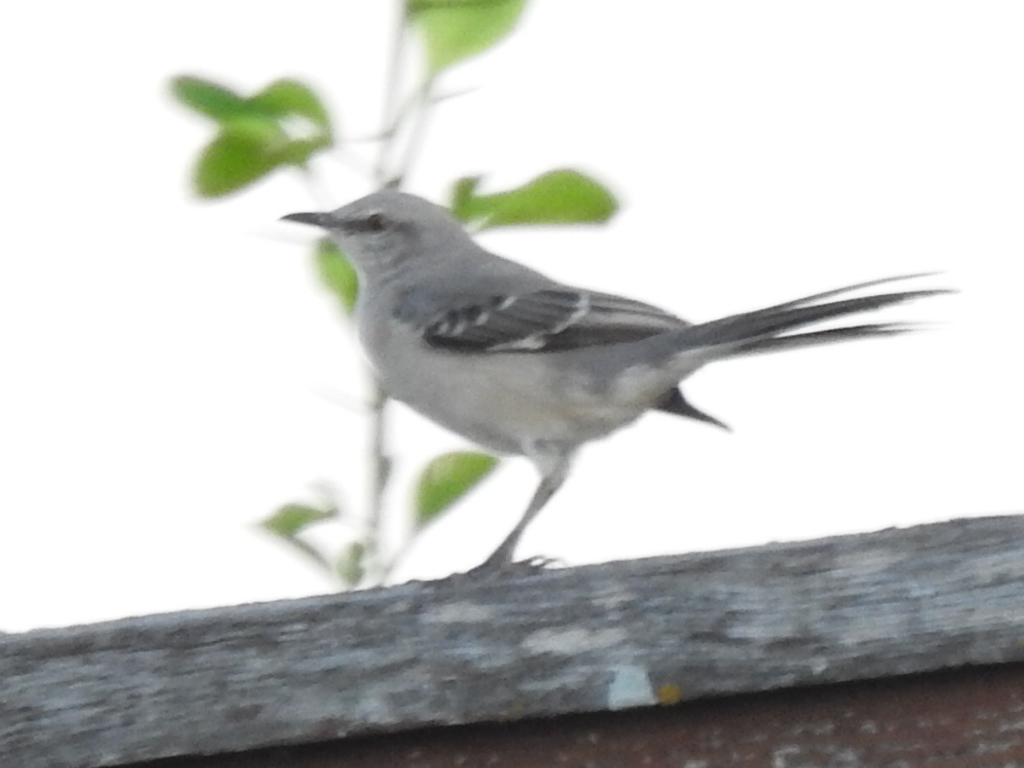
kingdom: Animalia
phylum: Chordata
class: Aves
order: Passeriformes
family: Mimidae
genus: Mimus
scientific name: Mimus polyglottos
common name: Northern mockingbird
